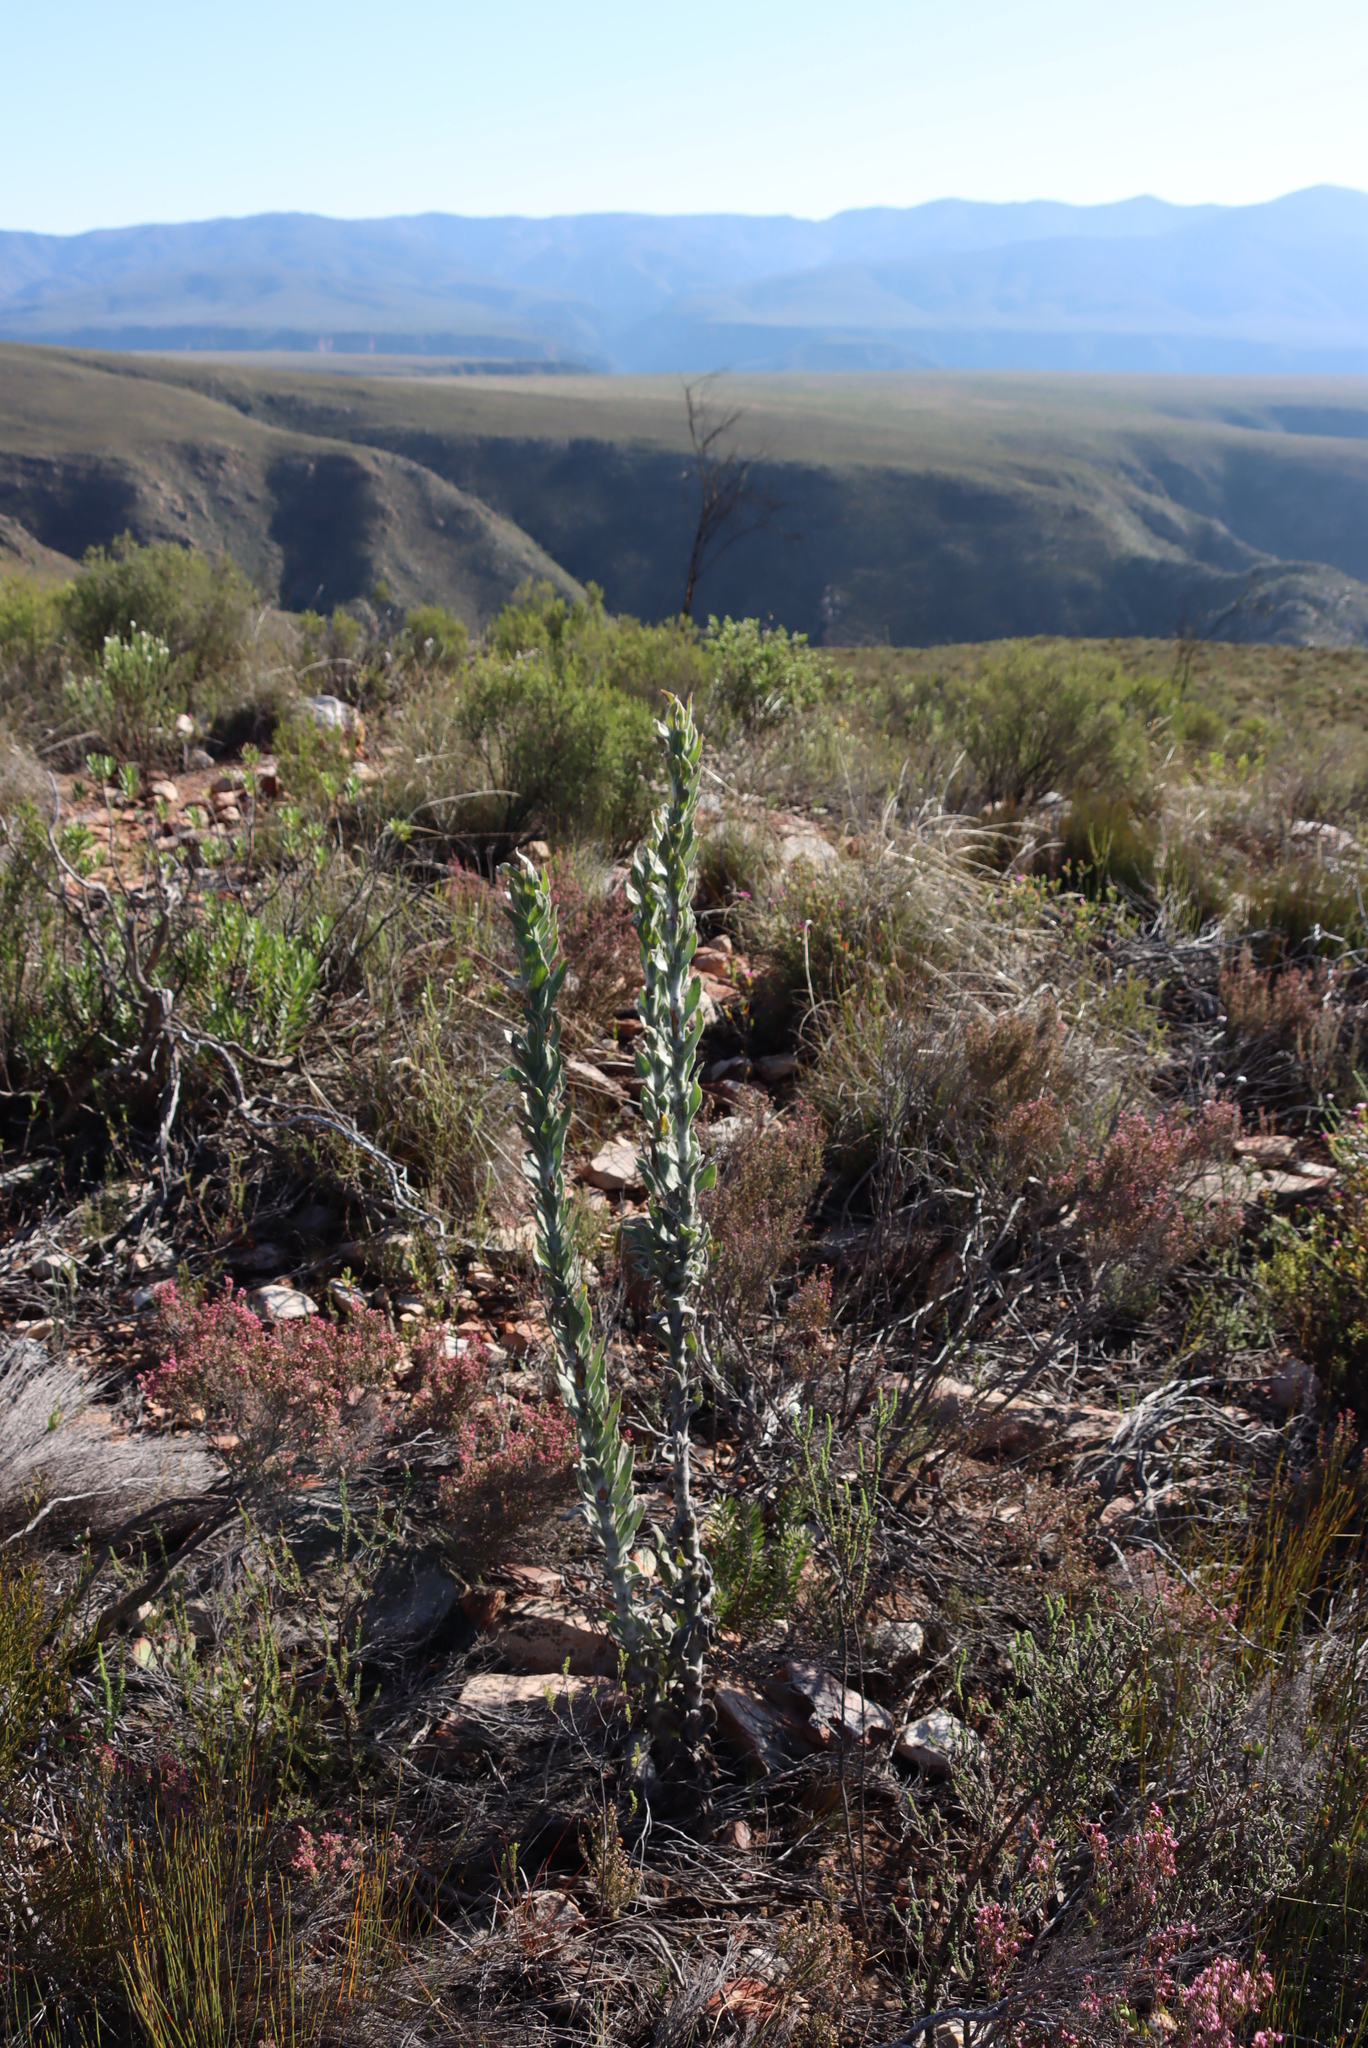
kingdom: Plantae
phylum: Tracheophyta
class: Magnoliopsida
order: Asterales
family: Asteraceae
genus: Syncarpha
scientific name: Syncarpha milleflora
